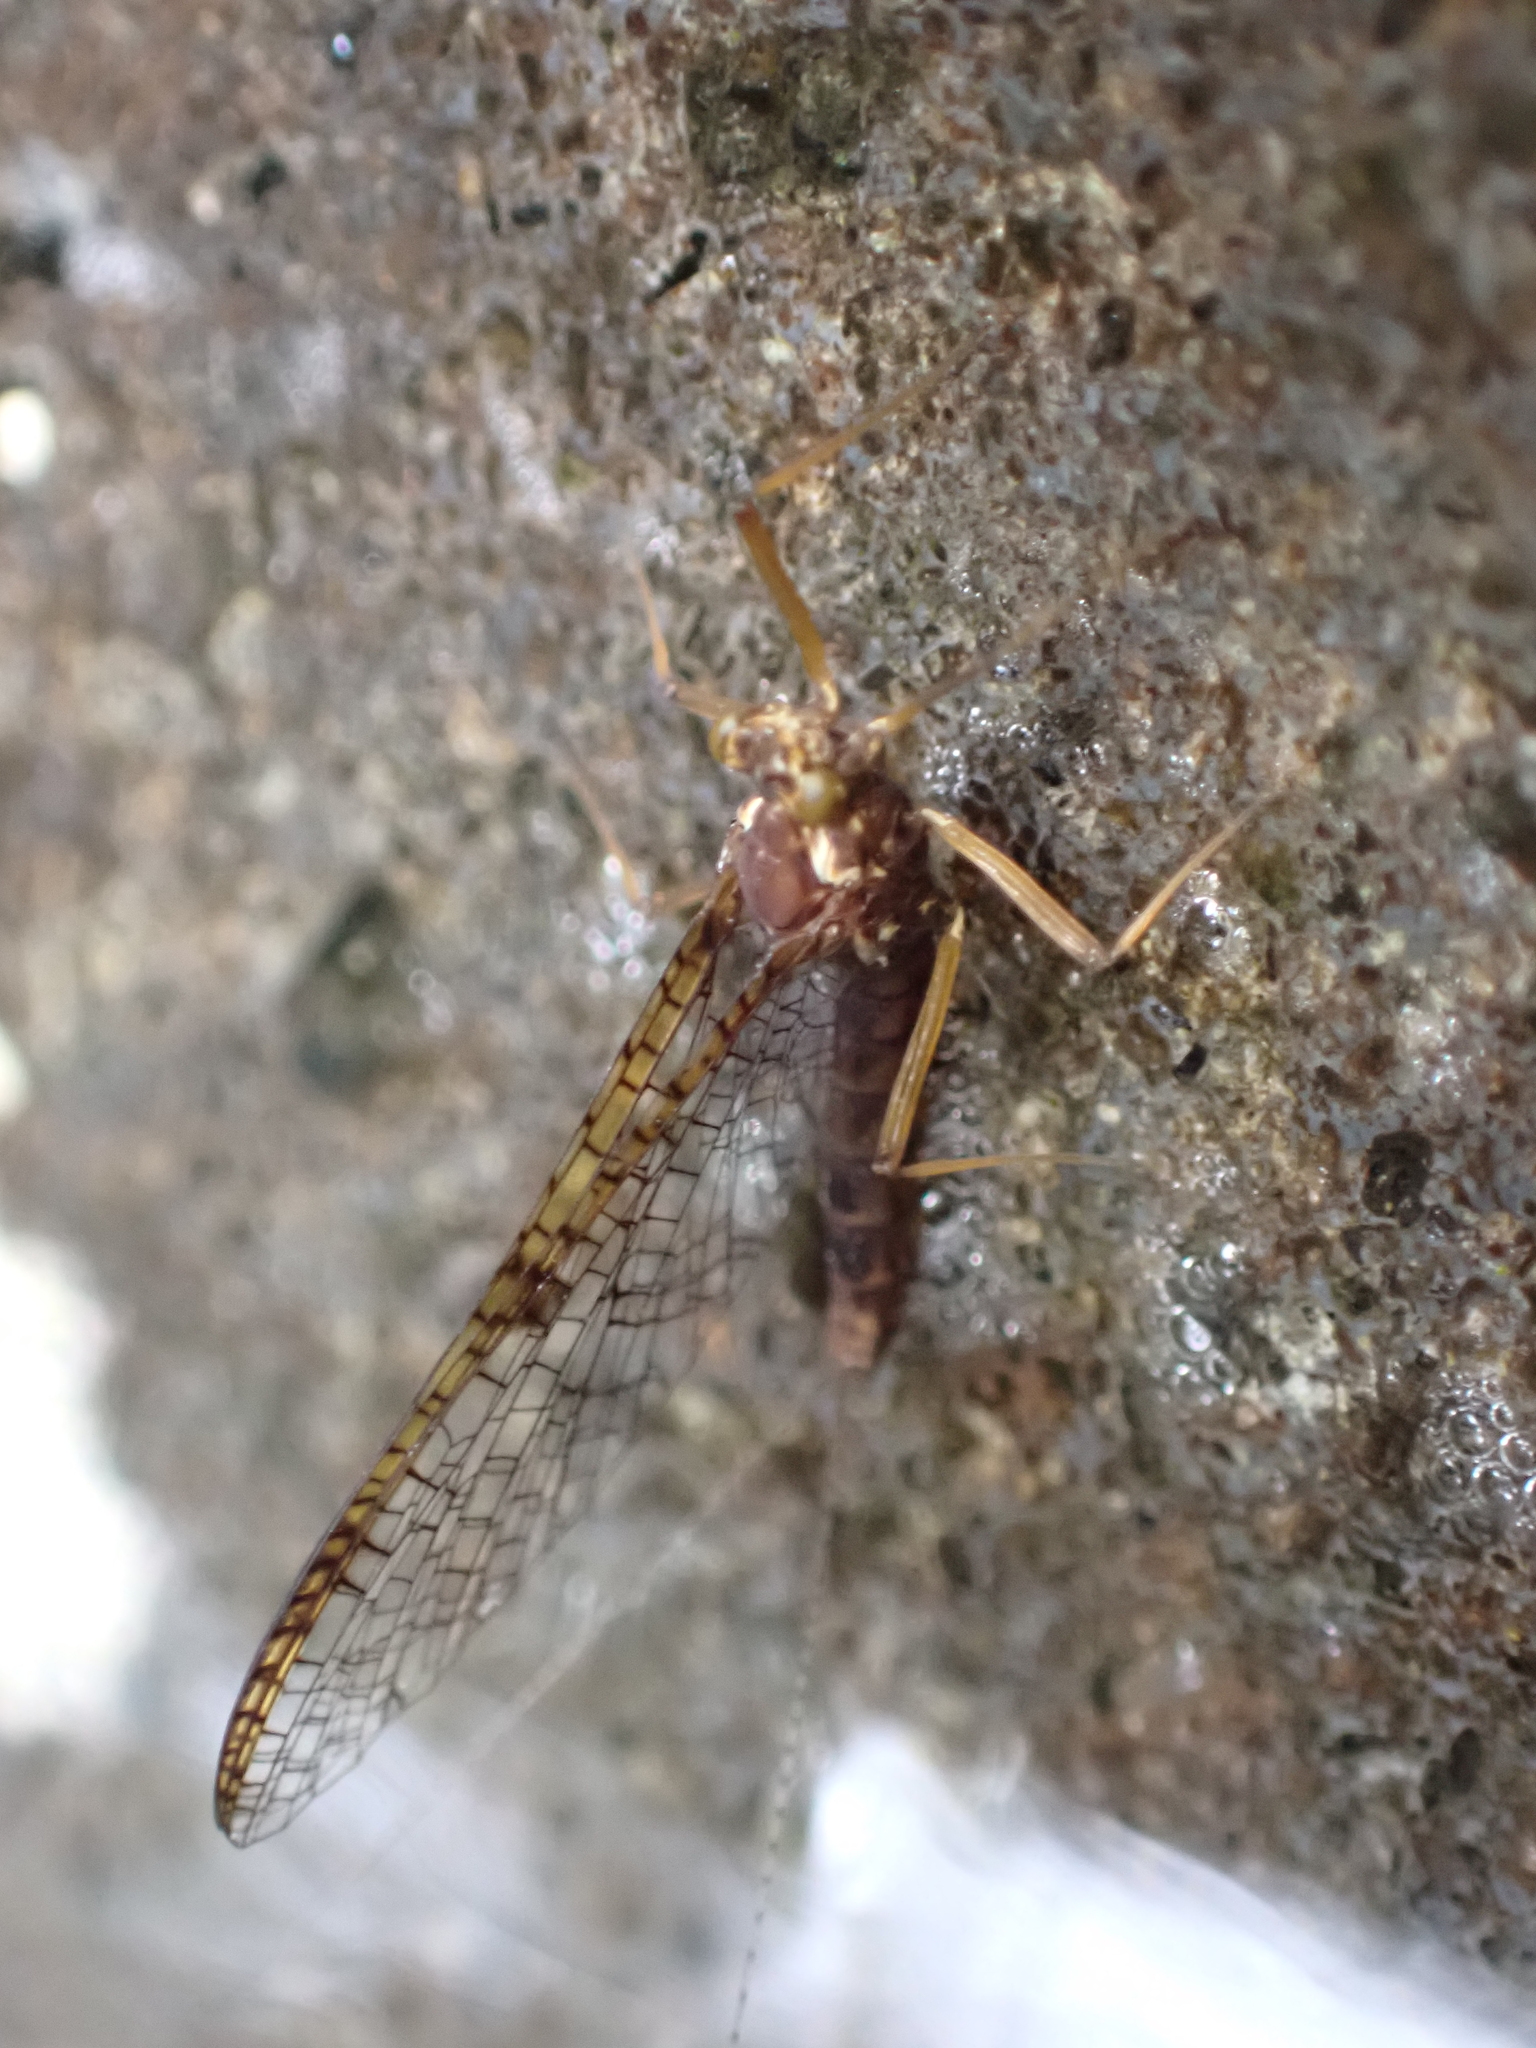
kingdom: Animalia
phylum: Arthropoda
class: Insecta
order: Ephemeroptera
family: Leptophlebiidae
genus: Zephlebia
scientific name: Zephlebia versicolor
